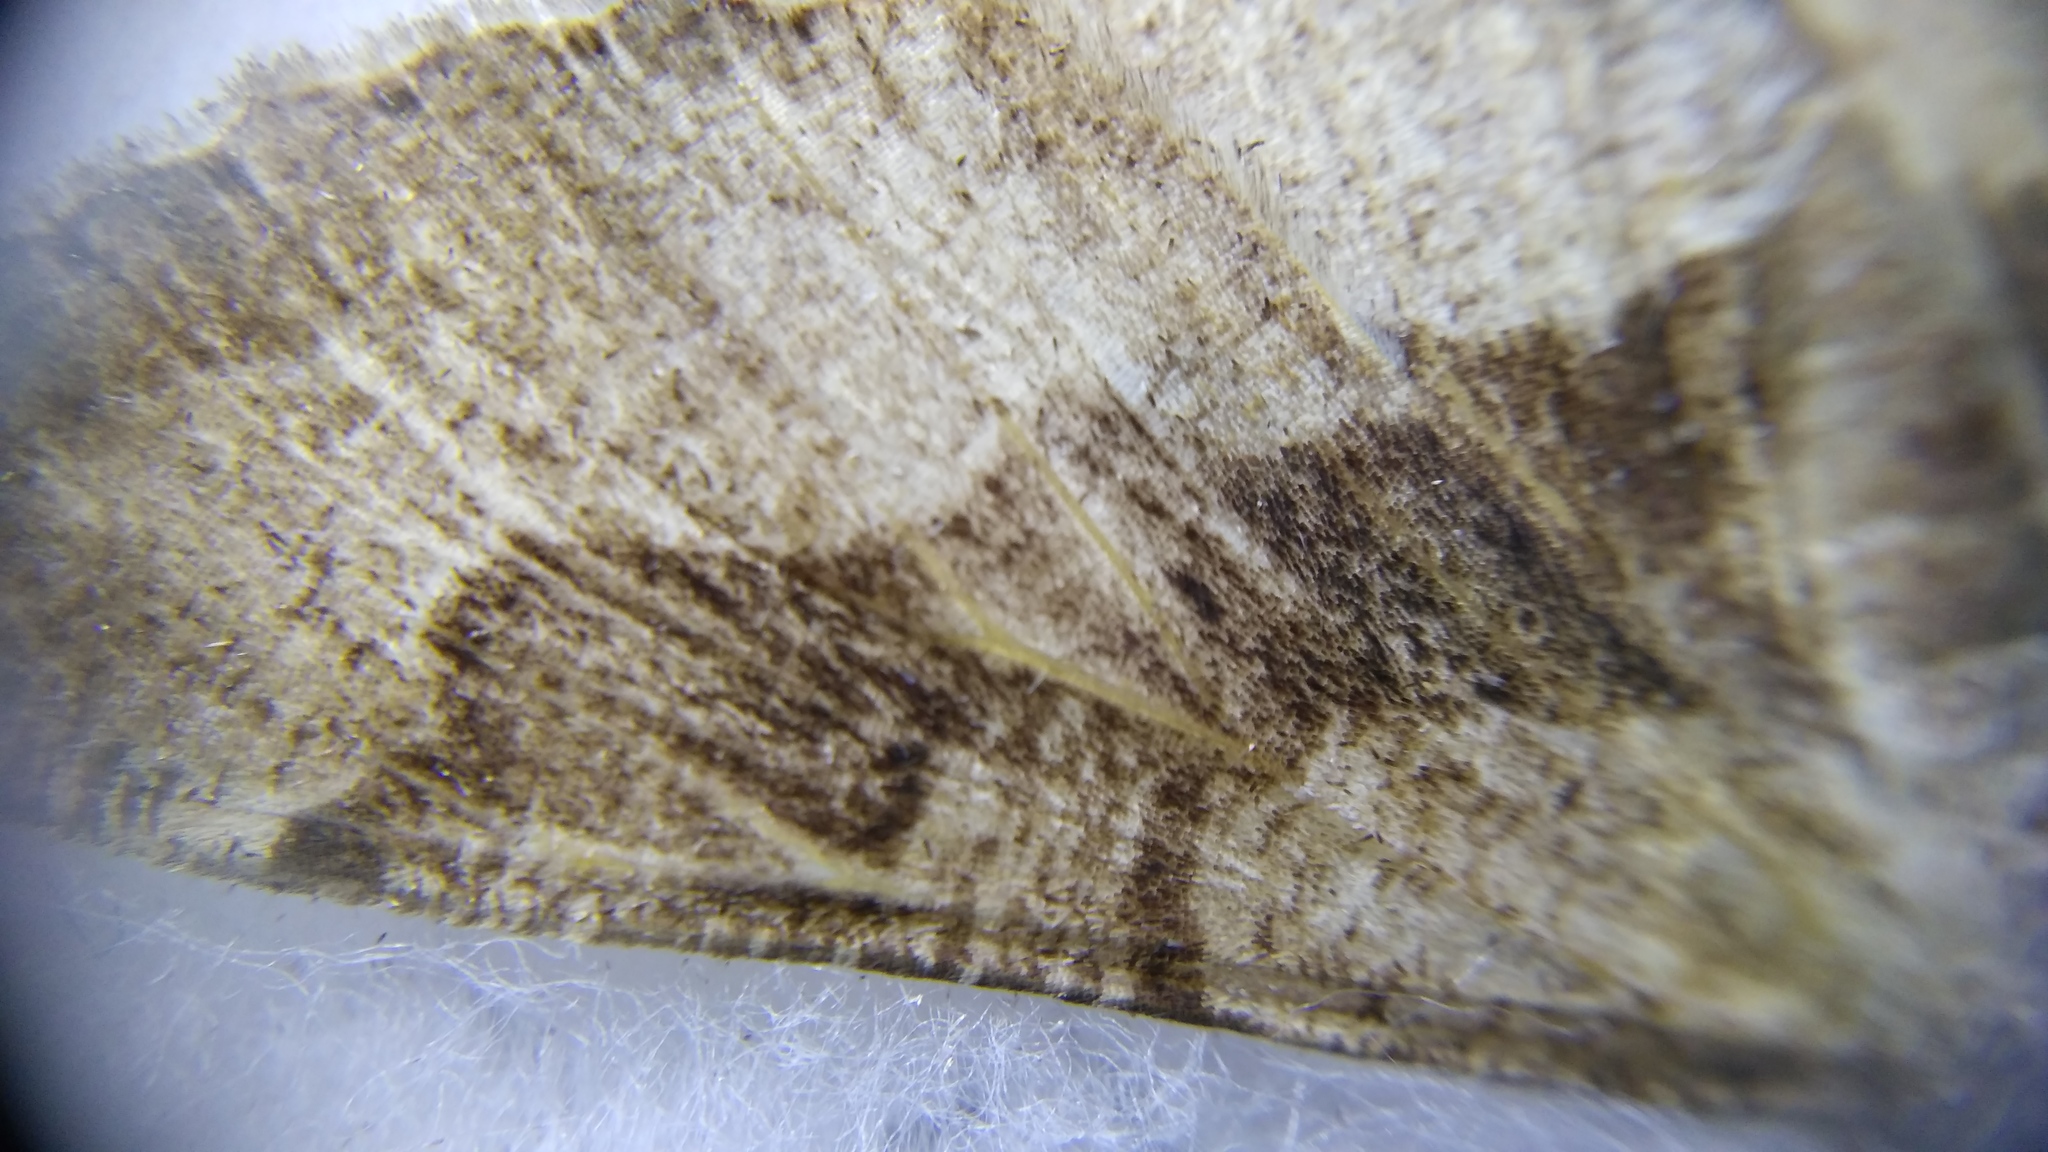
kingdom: Animalia
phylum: Arthropoda
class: Insecta
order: Lepidoptera
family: Geometridae
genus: Alcis
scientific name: Alcis repandata
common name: Mottled beauty
